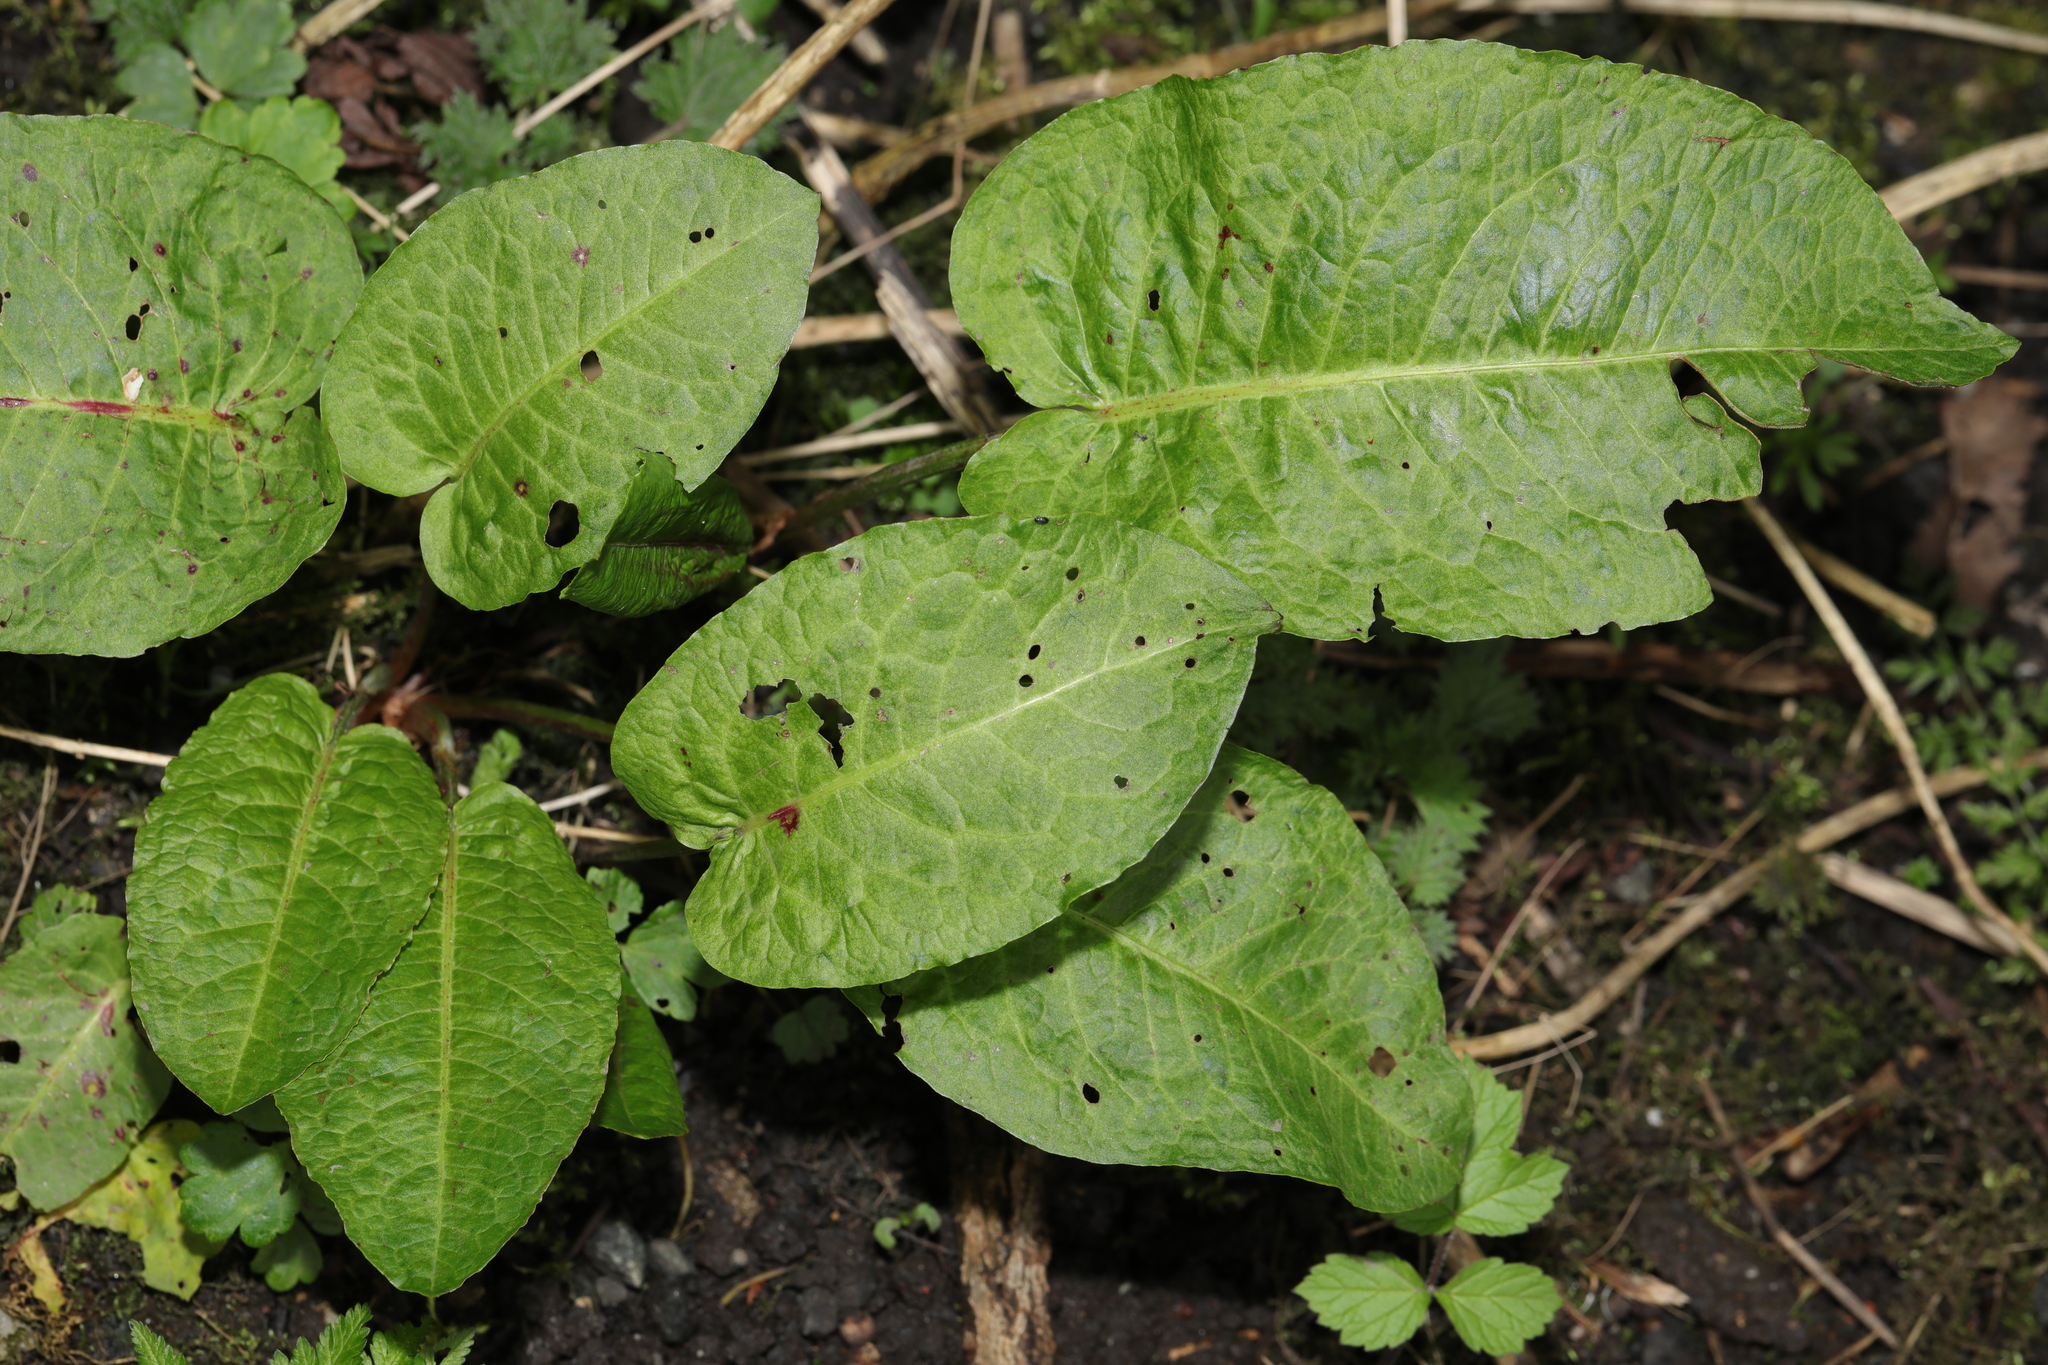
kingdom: Plantae
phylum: Tracheophyta
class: Magnoliopsida
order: Caryophyllales
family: Polygonaceae
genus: Rumex
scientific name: Rumex obtusifolius
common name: Bitter dock
